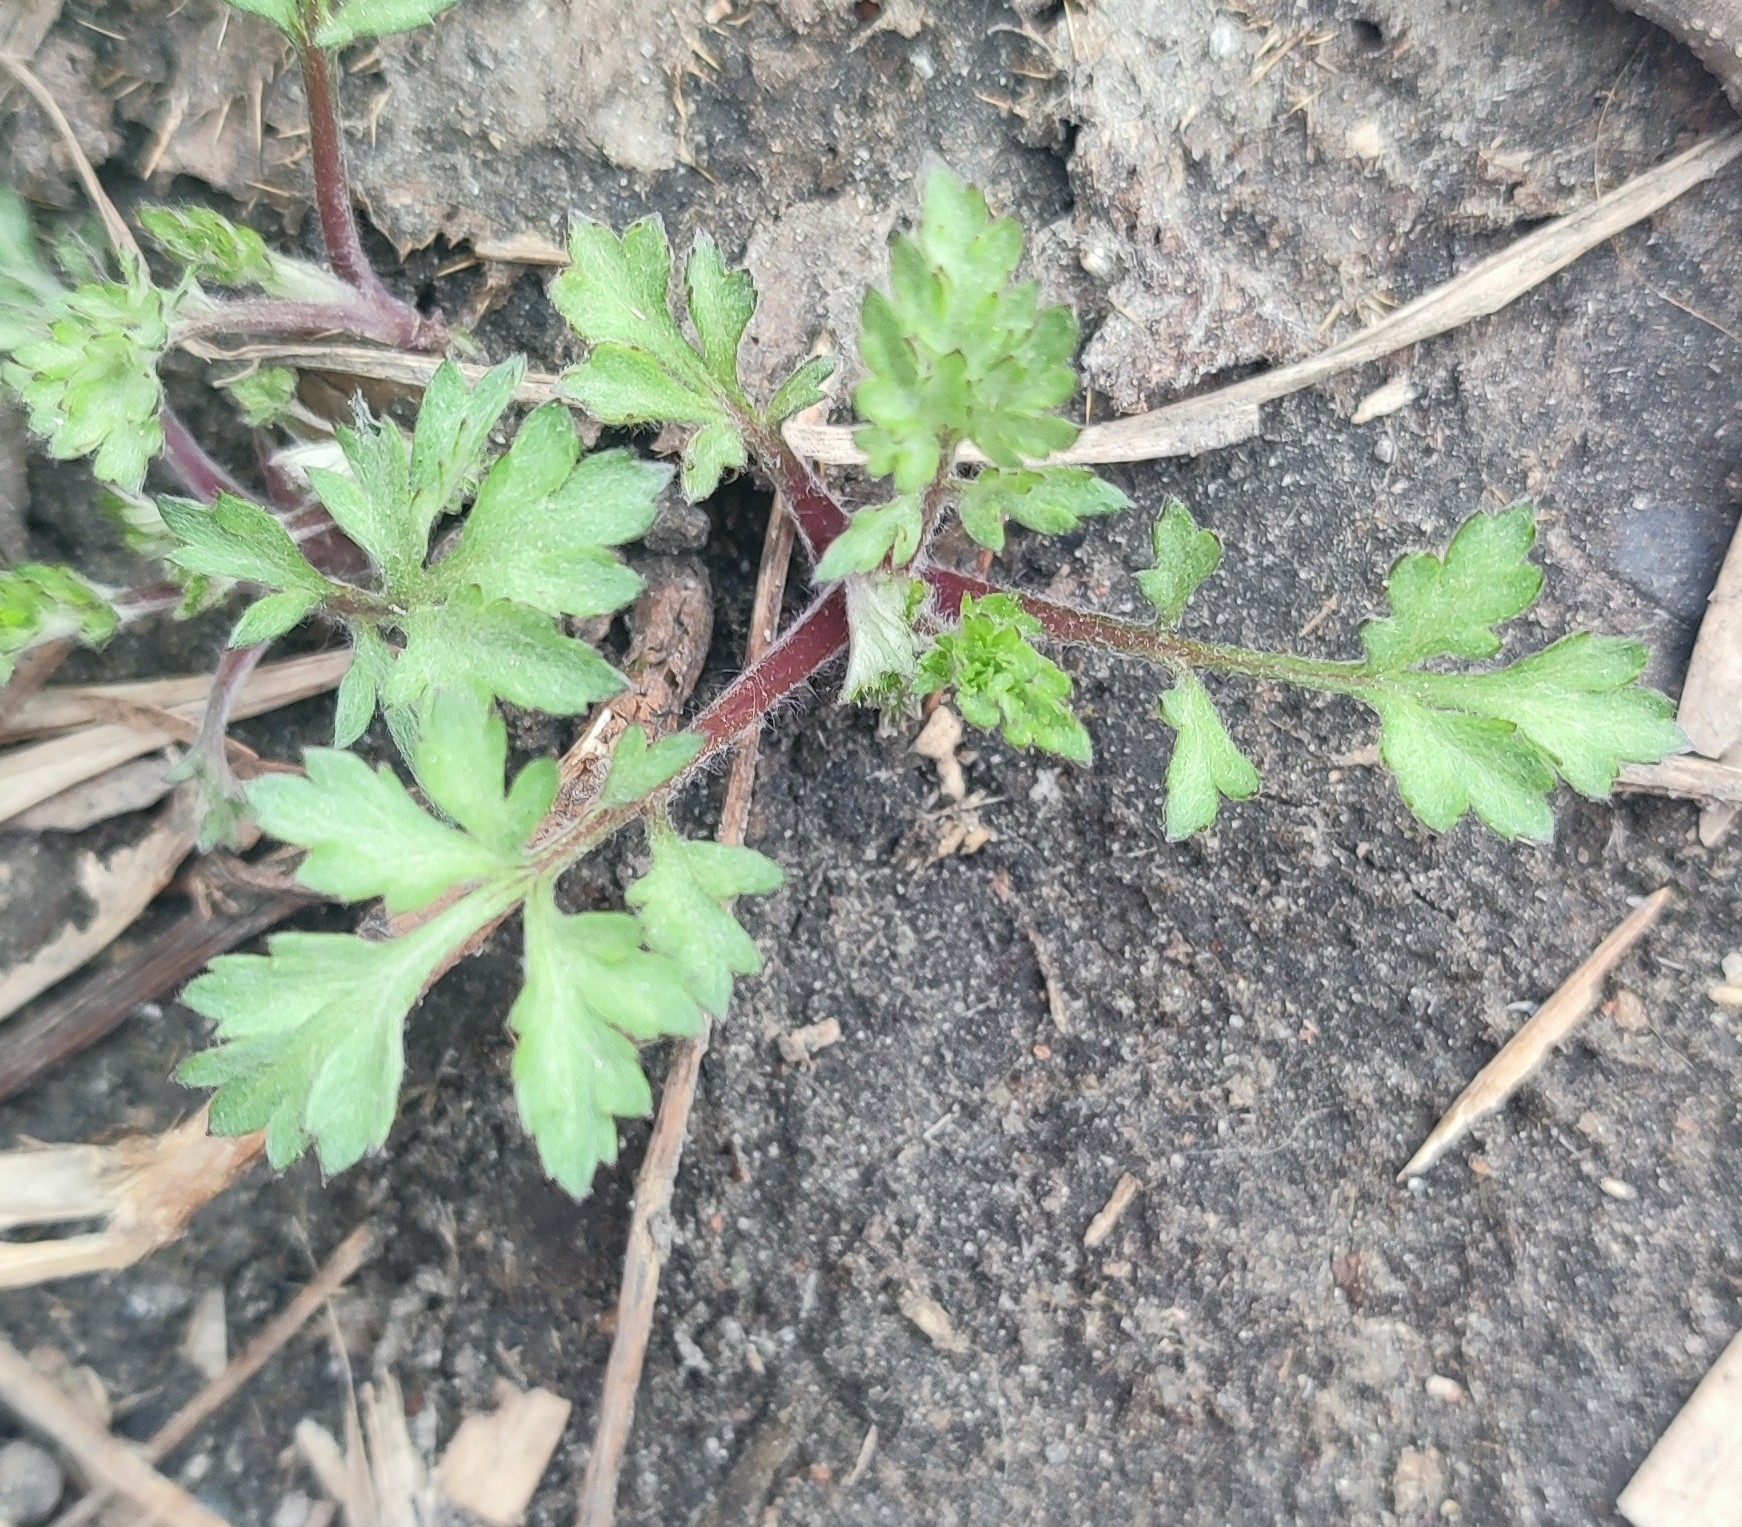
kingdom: Plantae
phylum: Tracheophyta
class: Magnoliopsida
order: Asterales
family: Asteraceae
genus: Artemisia
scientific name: Artemisia vulgaris
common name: Mugwort
